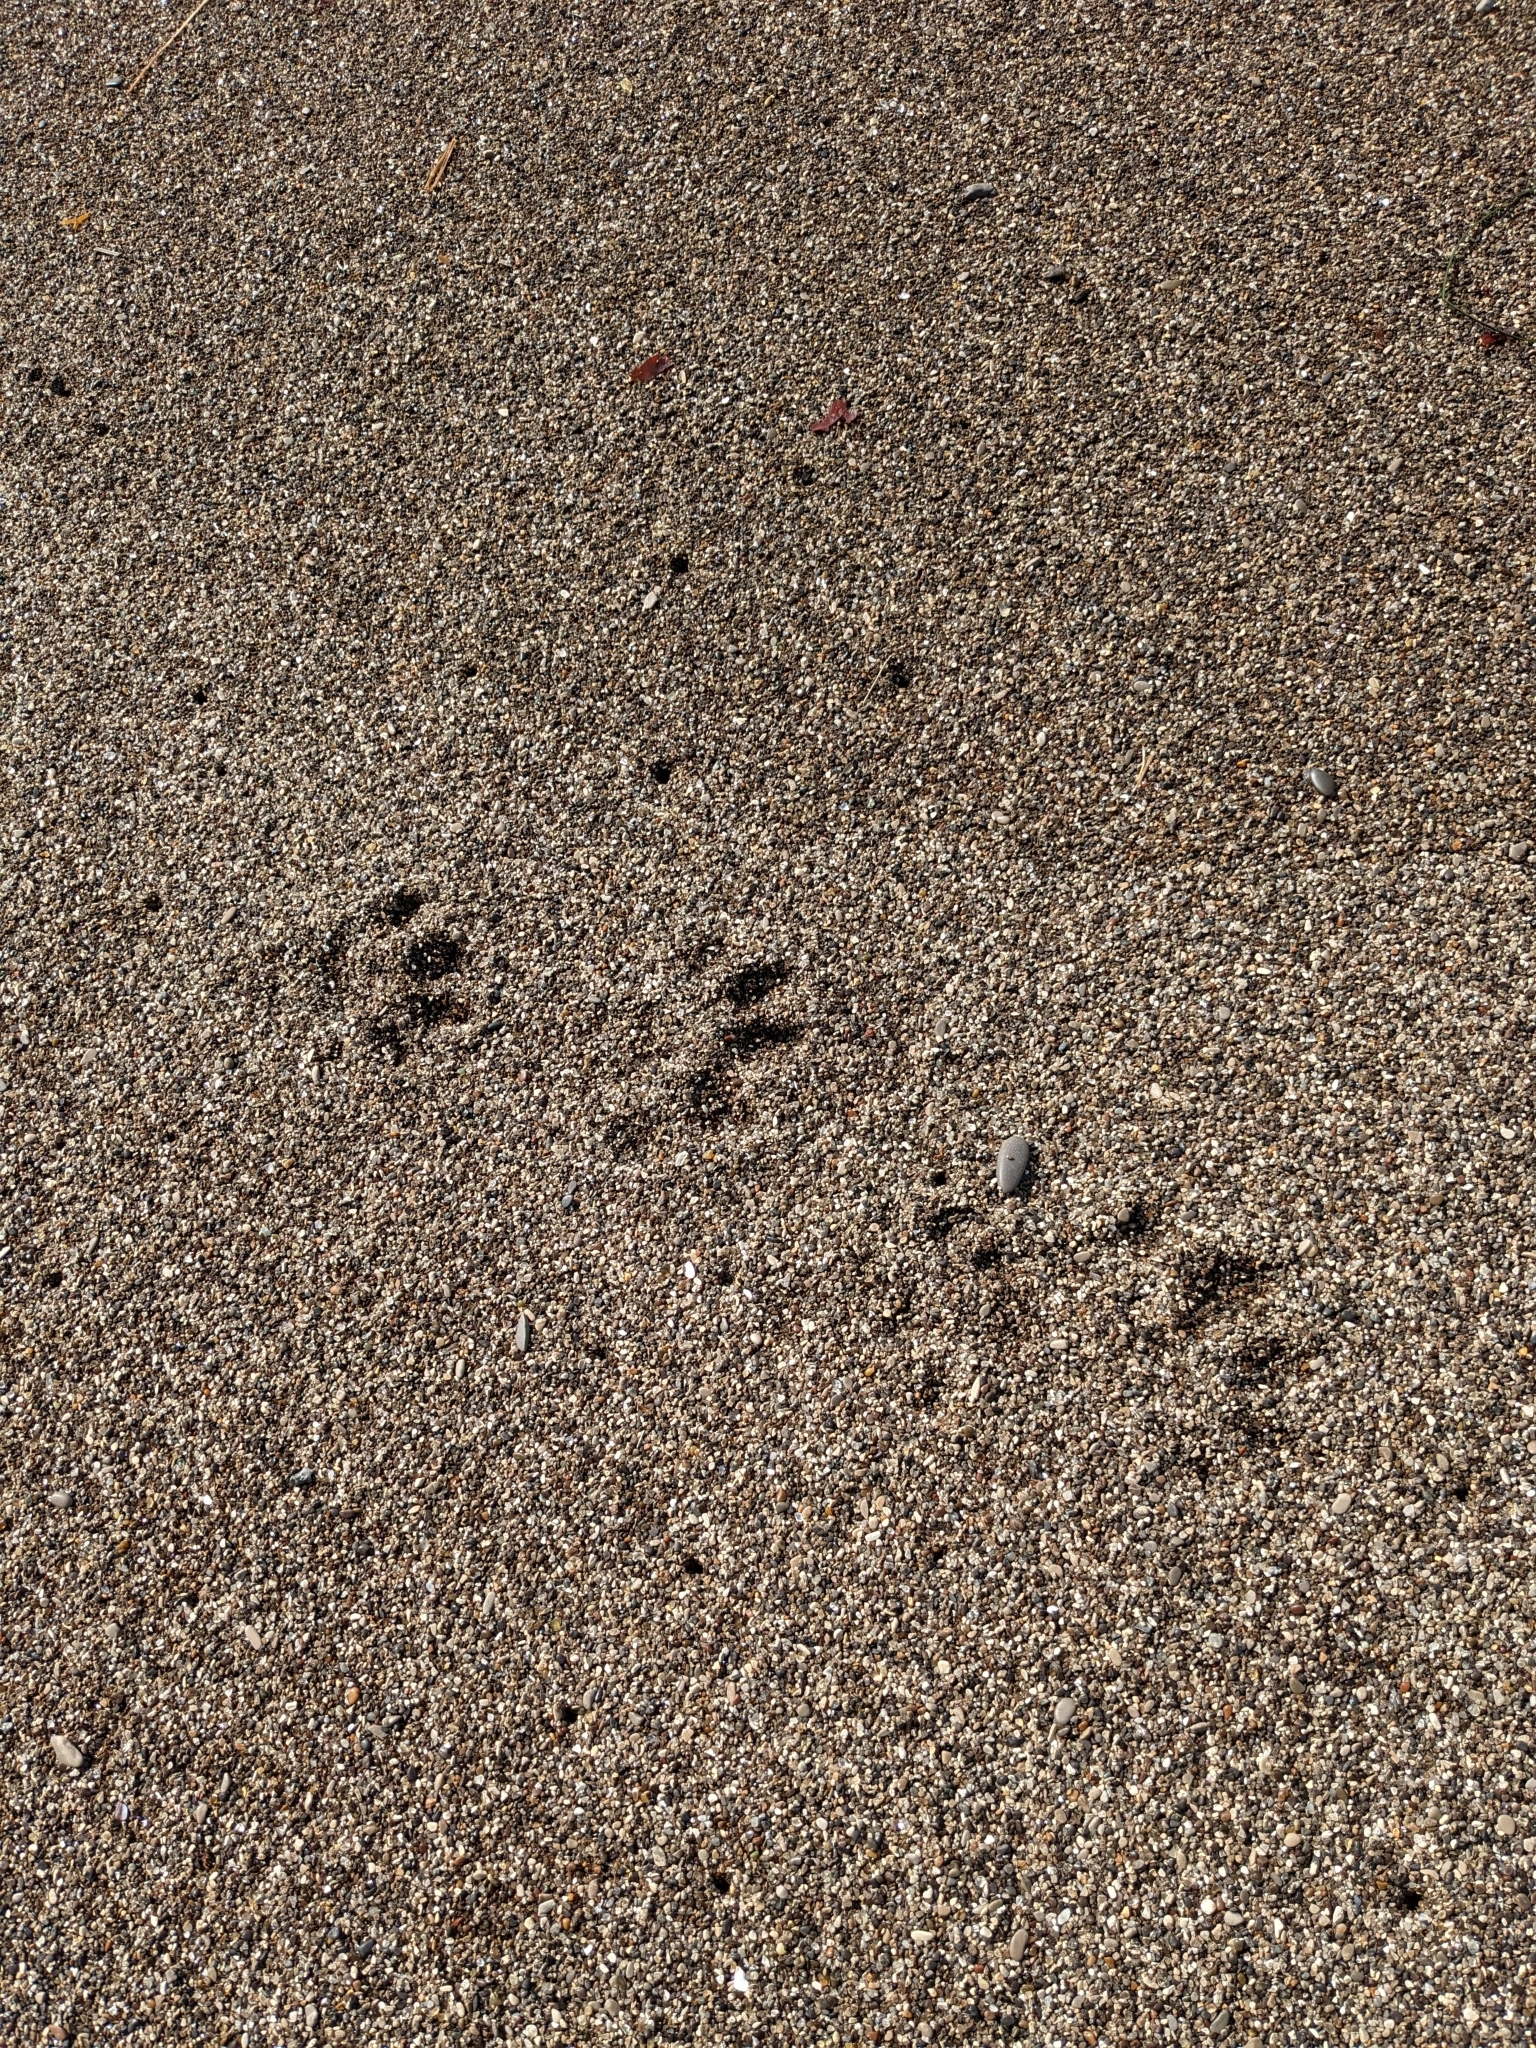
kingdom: Animalia
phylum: Chordata
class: Mammalia
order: Carnivora
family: Mustelidae
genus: Lontra
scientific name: Lontra canadensis
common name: North american river otter
